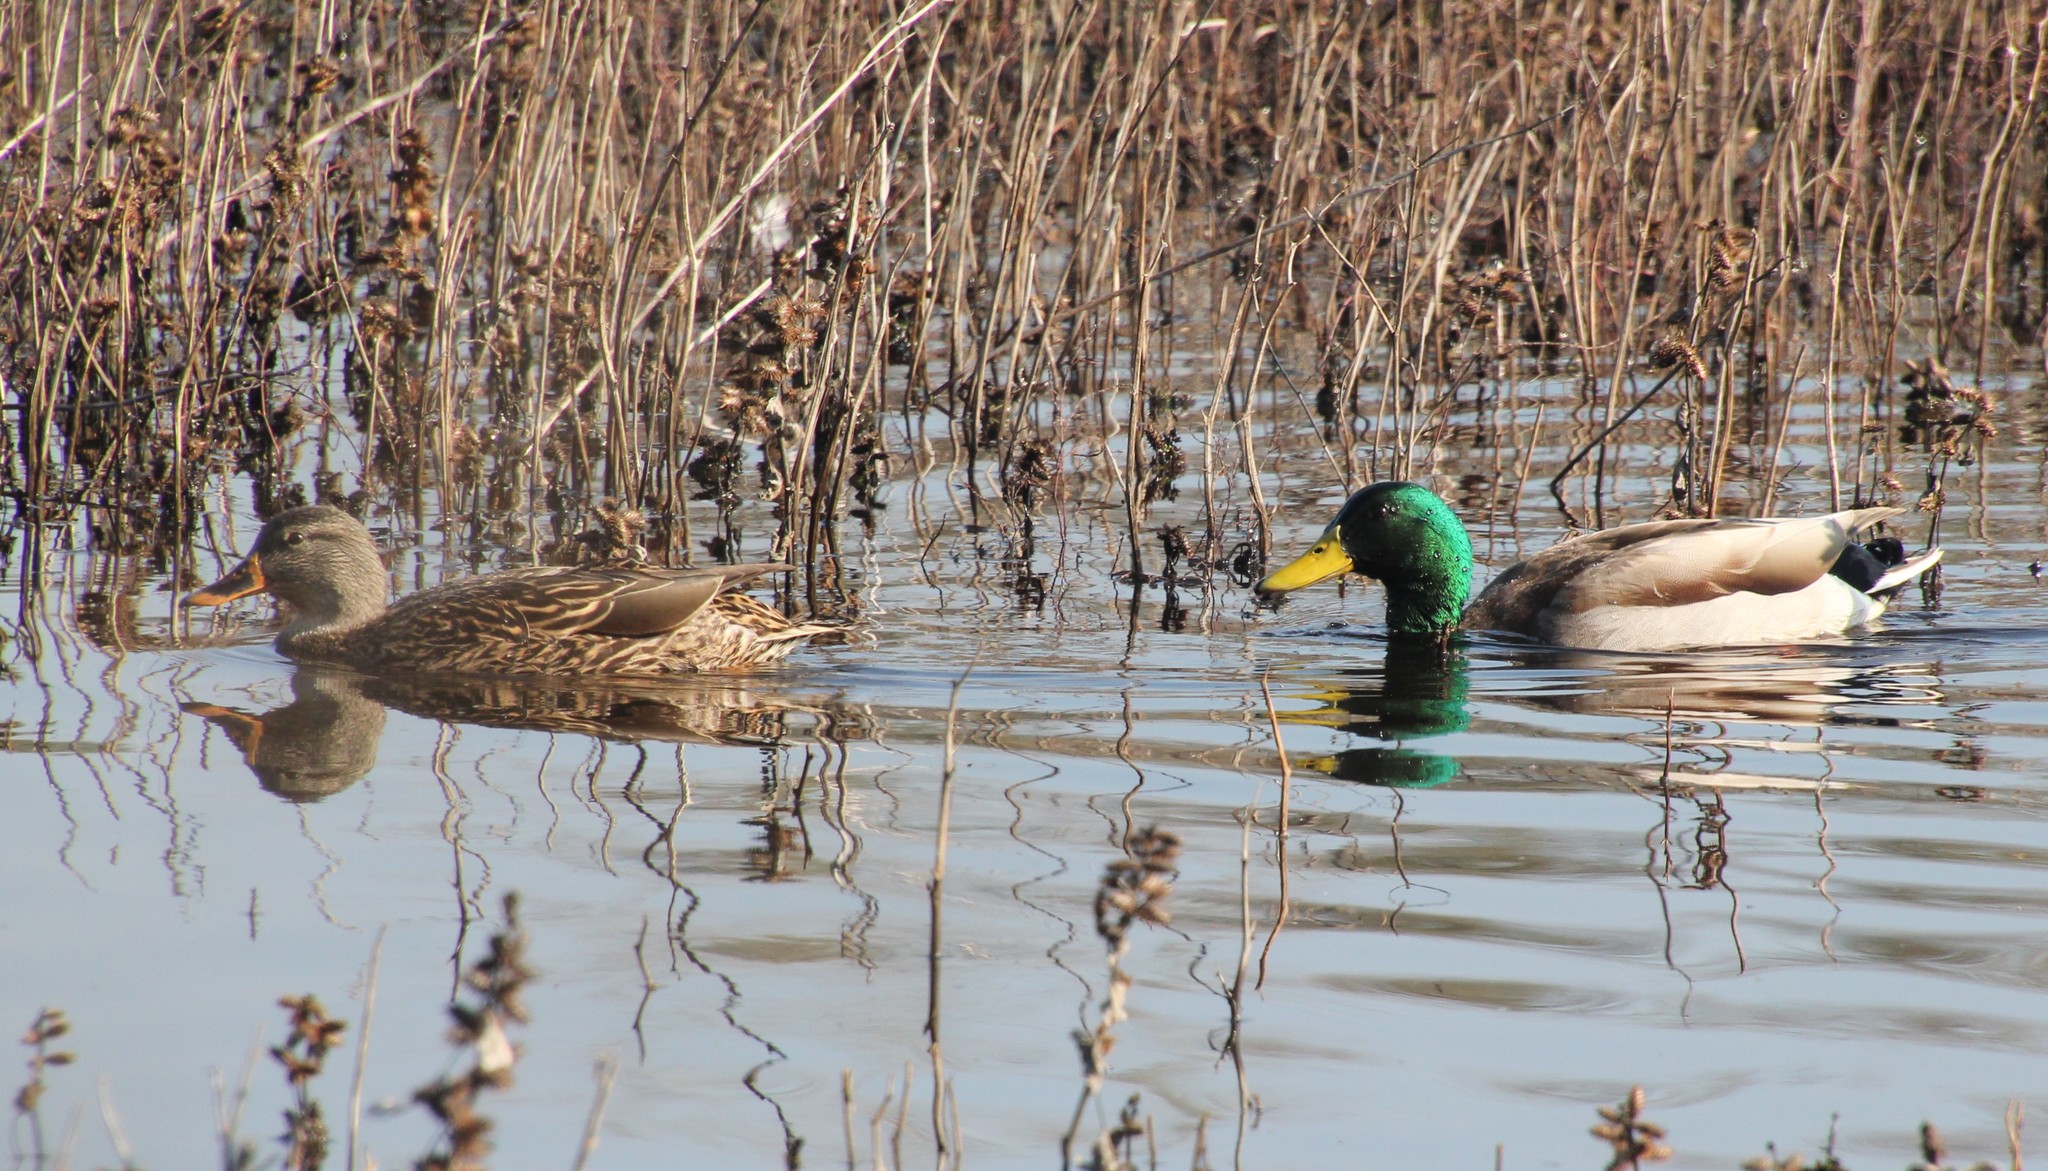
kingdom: Animalia
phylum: Chordata
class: Aves
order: Anseriformes
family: Anatidae
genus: Anas
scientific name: Anas platyrhynchos
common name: Mallard
